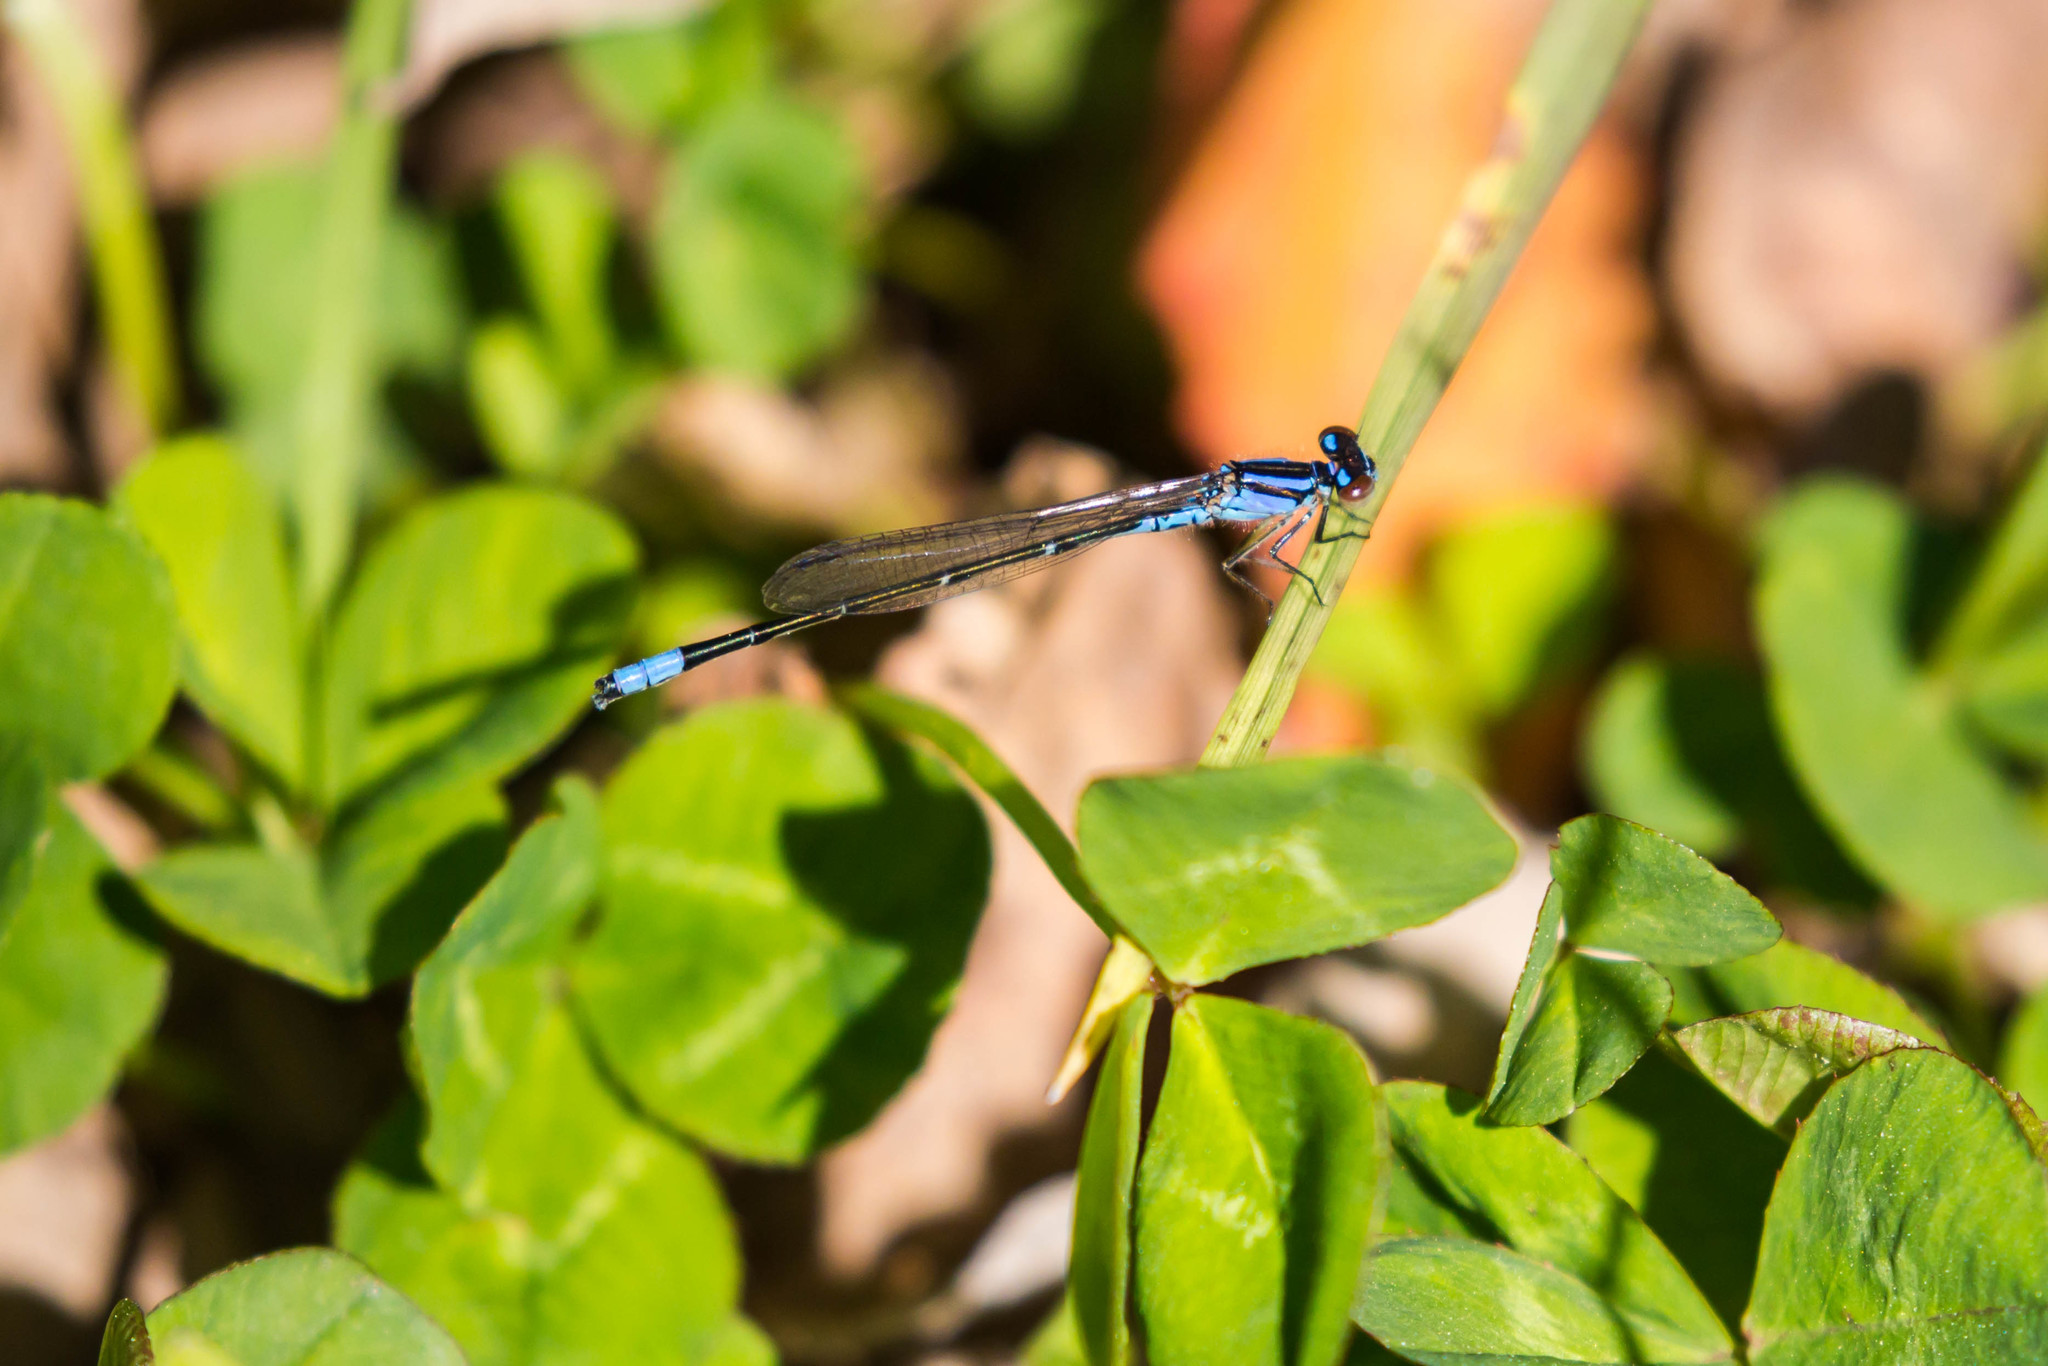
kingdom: Animalia
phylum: Arthropoda
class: Insecta
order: Odonata
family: Coenagrionidae
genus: Enallagma
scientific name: Enallagma geminatum
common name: Skimming bluet
